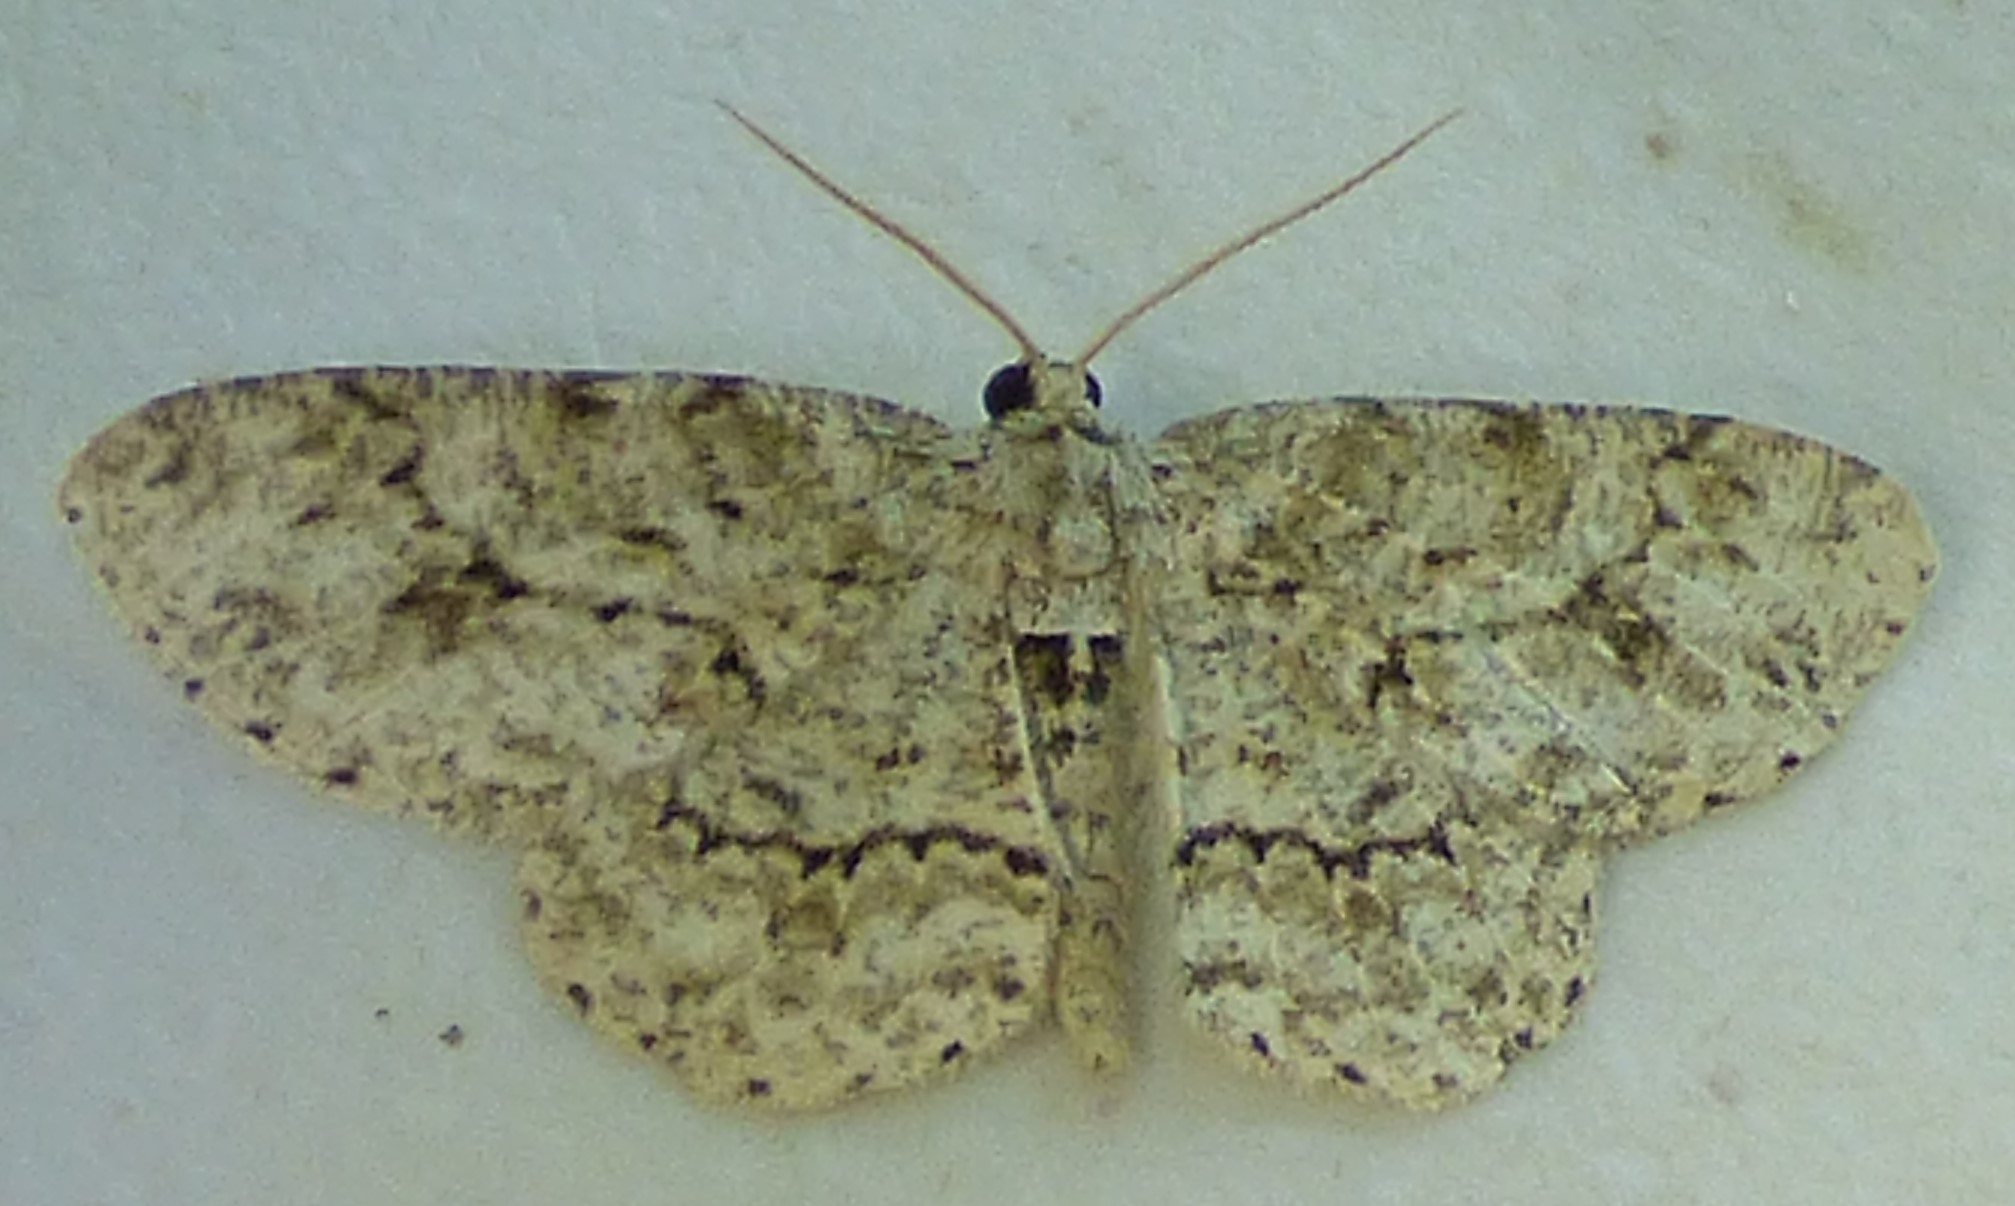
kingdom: Animalia
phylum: Arthropoda
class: Insecta
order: Lepidoptera
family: Geometridae
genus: Ectropis
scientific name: Ectropis crepuscularia
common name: Engrailed
